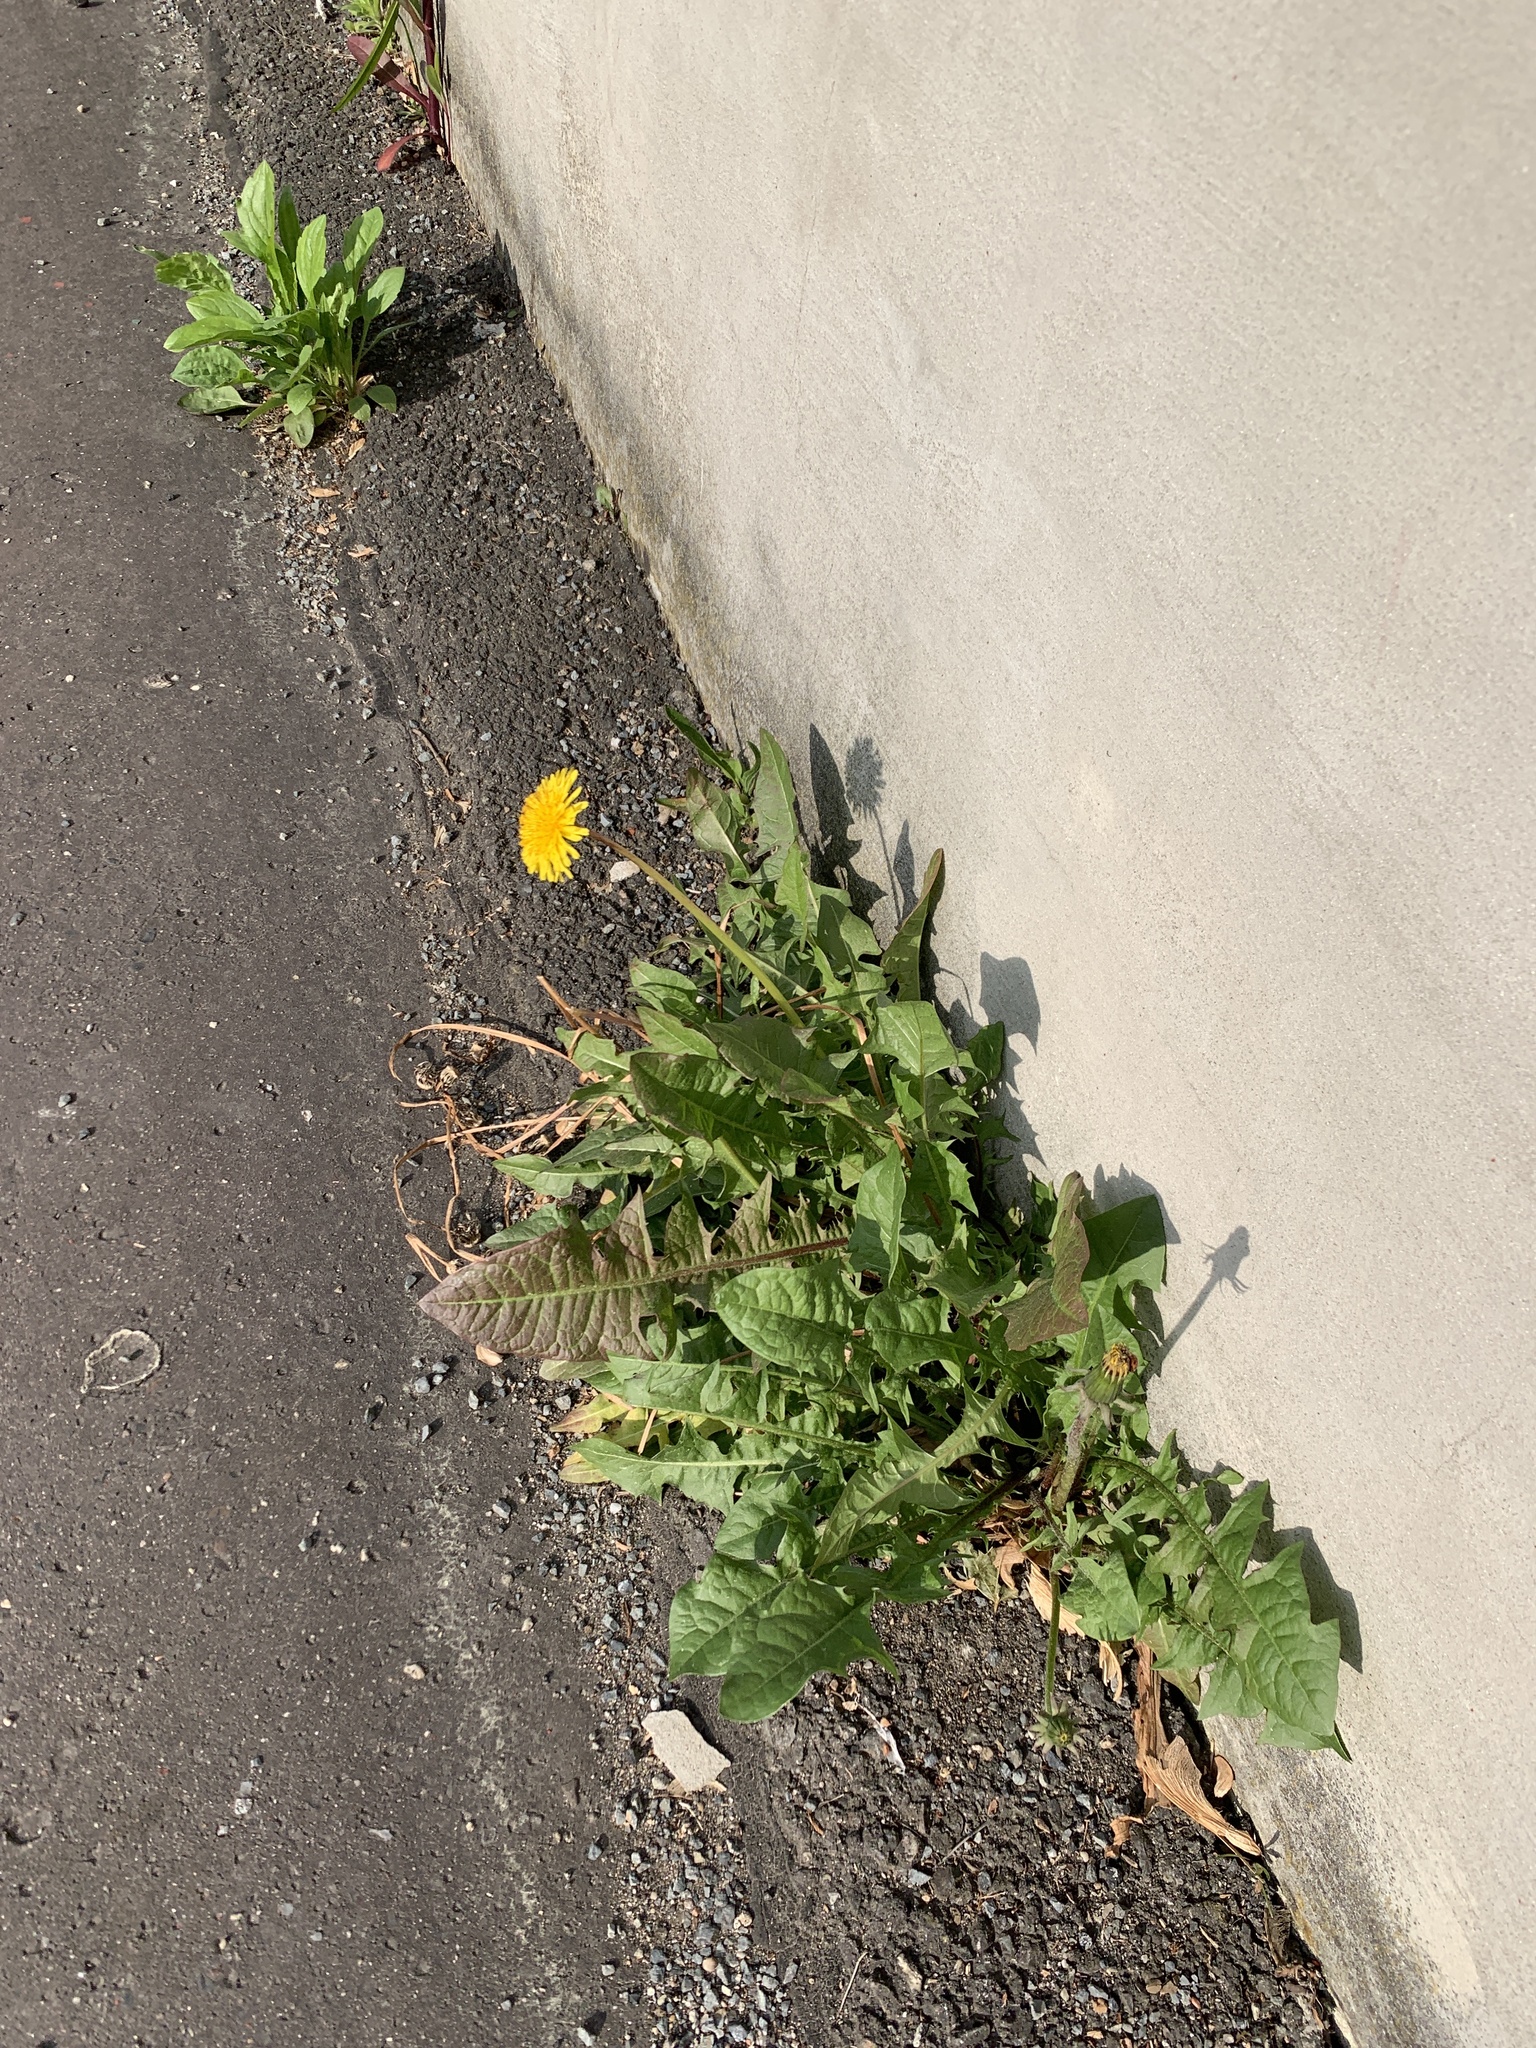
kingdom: Plantae
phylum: Tracheophyta
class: Magnoliopsida
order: Asterales
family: Asteraceae
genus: Taraxacum
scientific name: Taraxacum officinale
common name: Common dandelion
